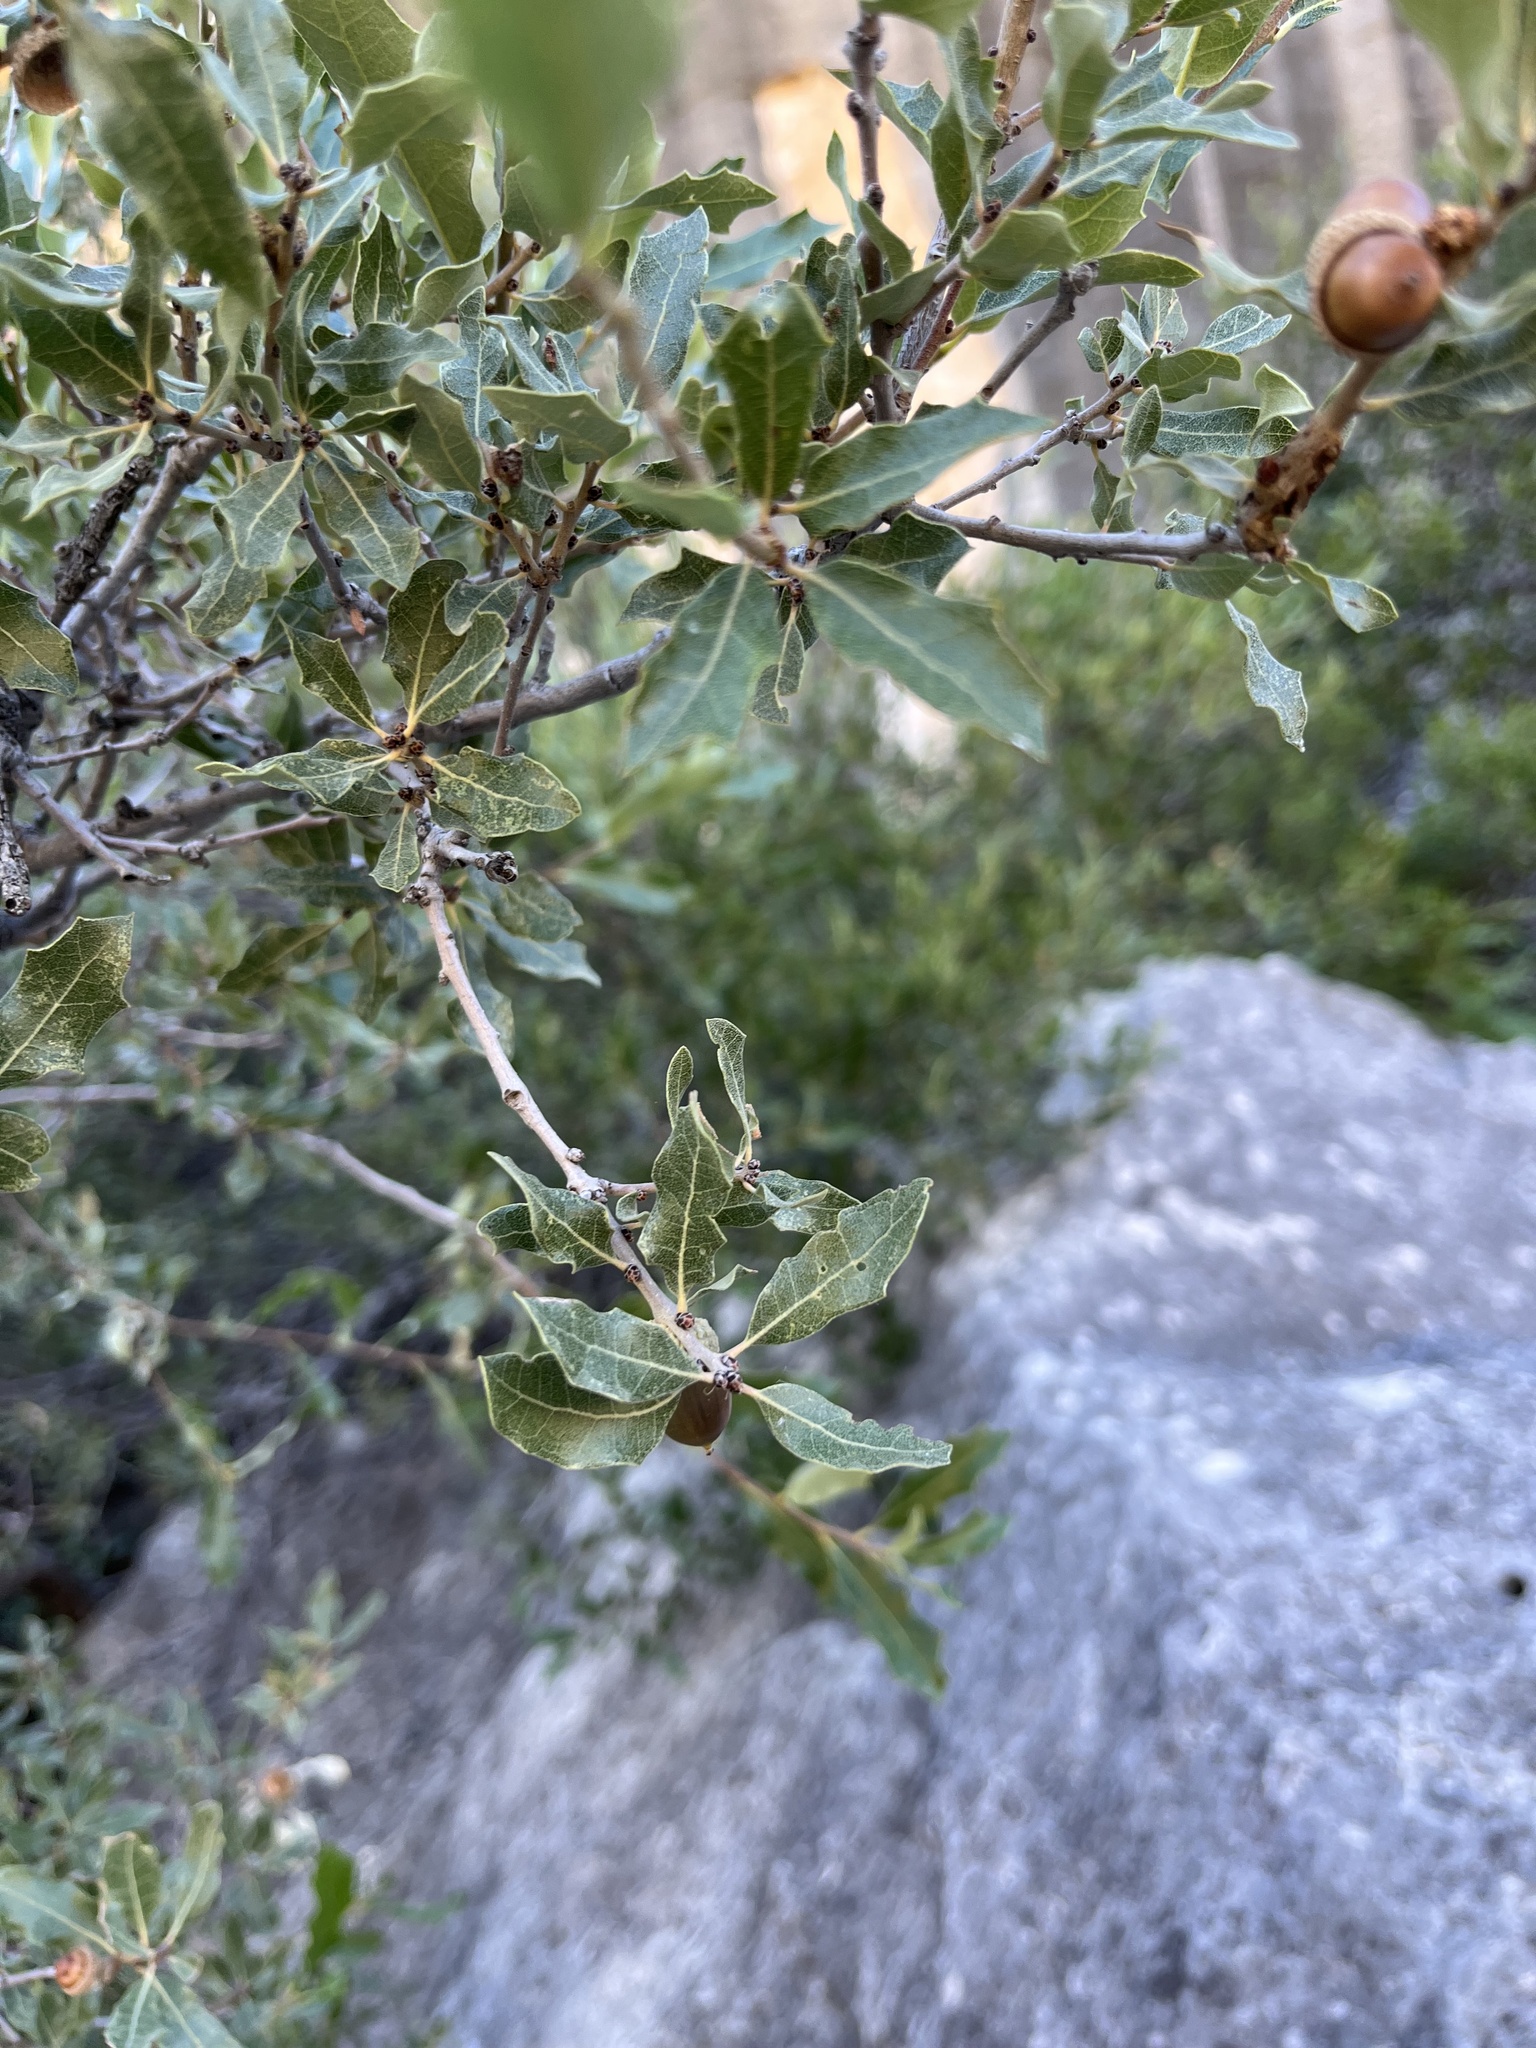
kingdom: Plantae
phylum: Tracheophyta
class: Magnoliopsida
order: Fagales
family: Fagaceae
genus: Quercus
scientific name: Quercus vaseyana
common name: Sandpaper oak
